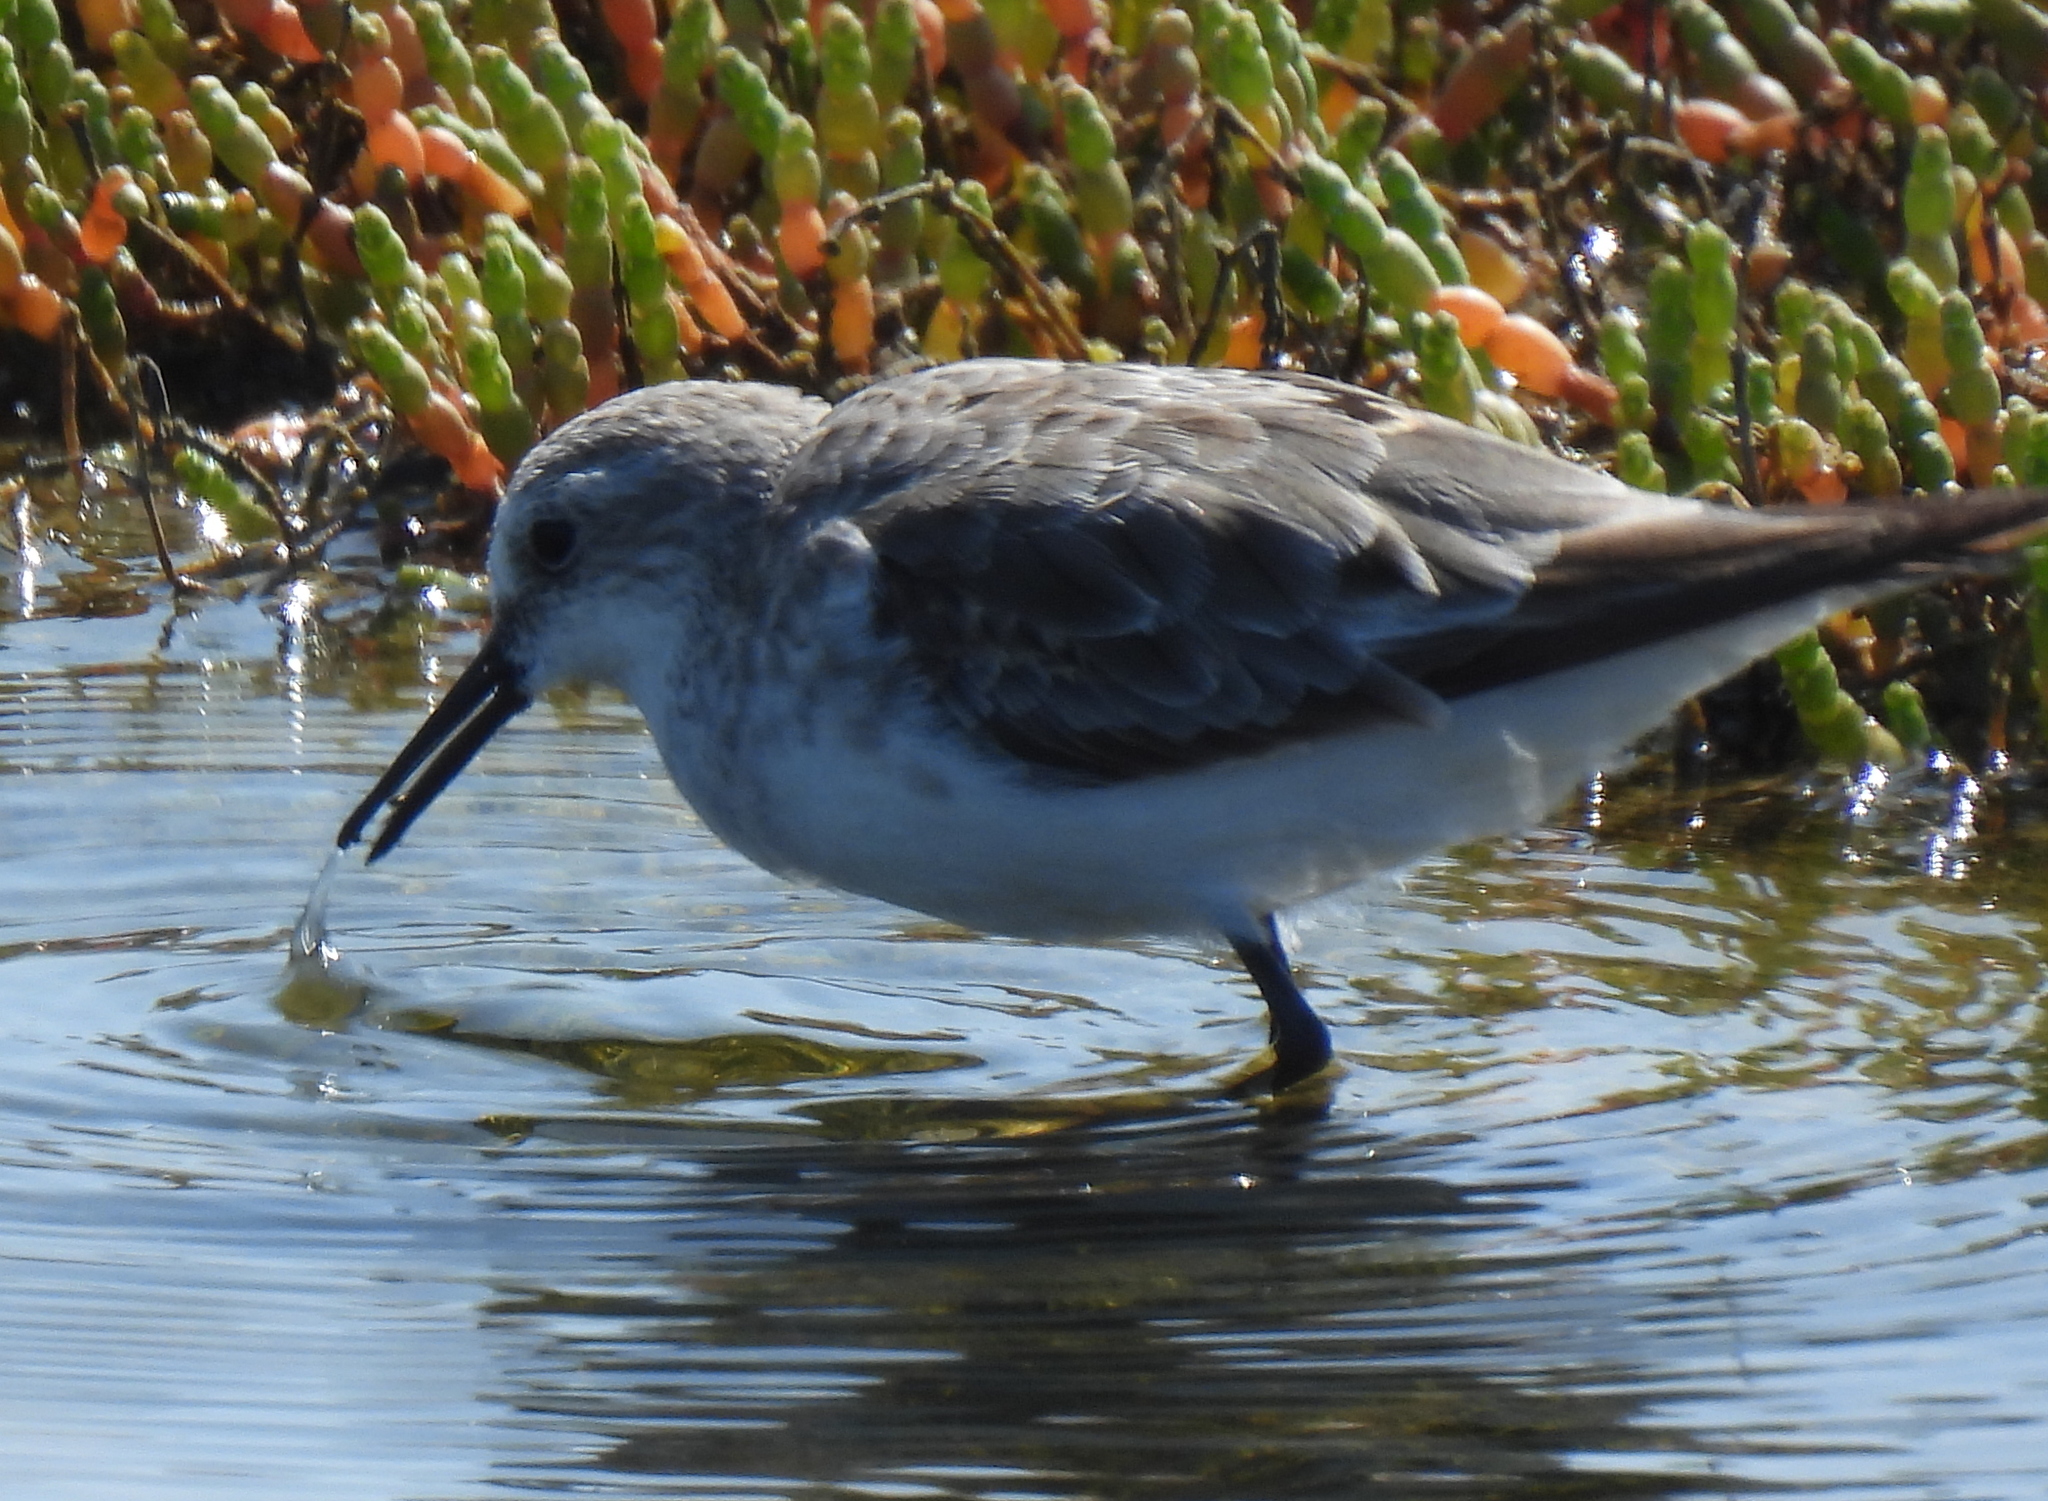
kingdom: Animalia
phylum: Chordata
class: Aves
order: Charadriiformes
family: Scolopacidae
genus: Calidris
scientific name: Calidris minuta
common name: Little stint
